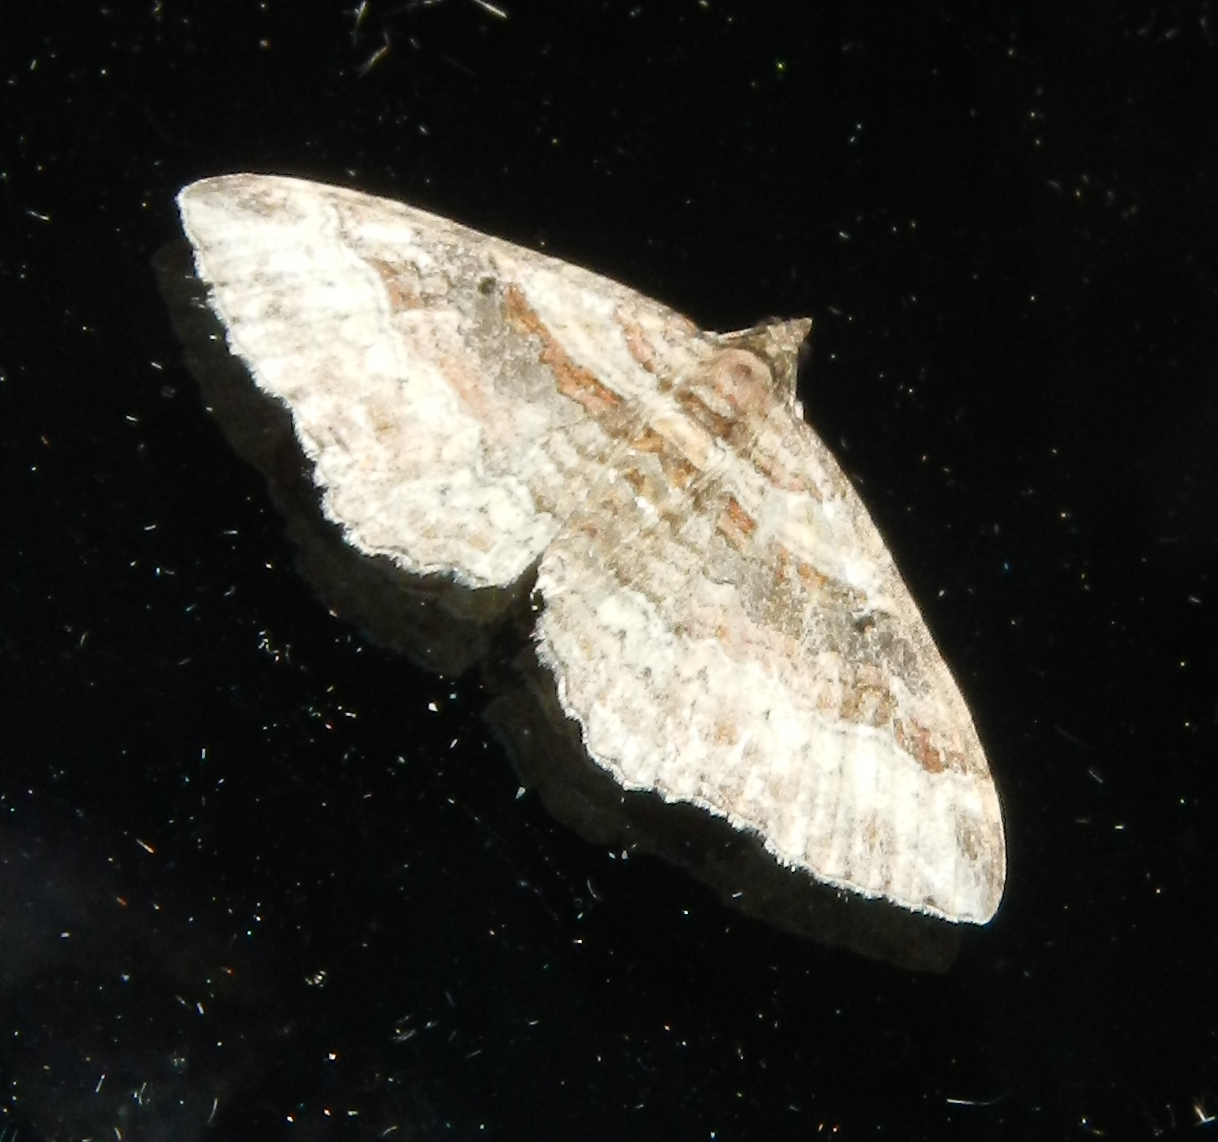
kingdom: Animalia
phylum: Arthropoda
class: Insecta
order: Lepidoptera
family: Geometridae
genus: Costaconvexa
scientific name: Costaconvexa centrostrigaria
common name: Bent-line carpet
